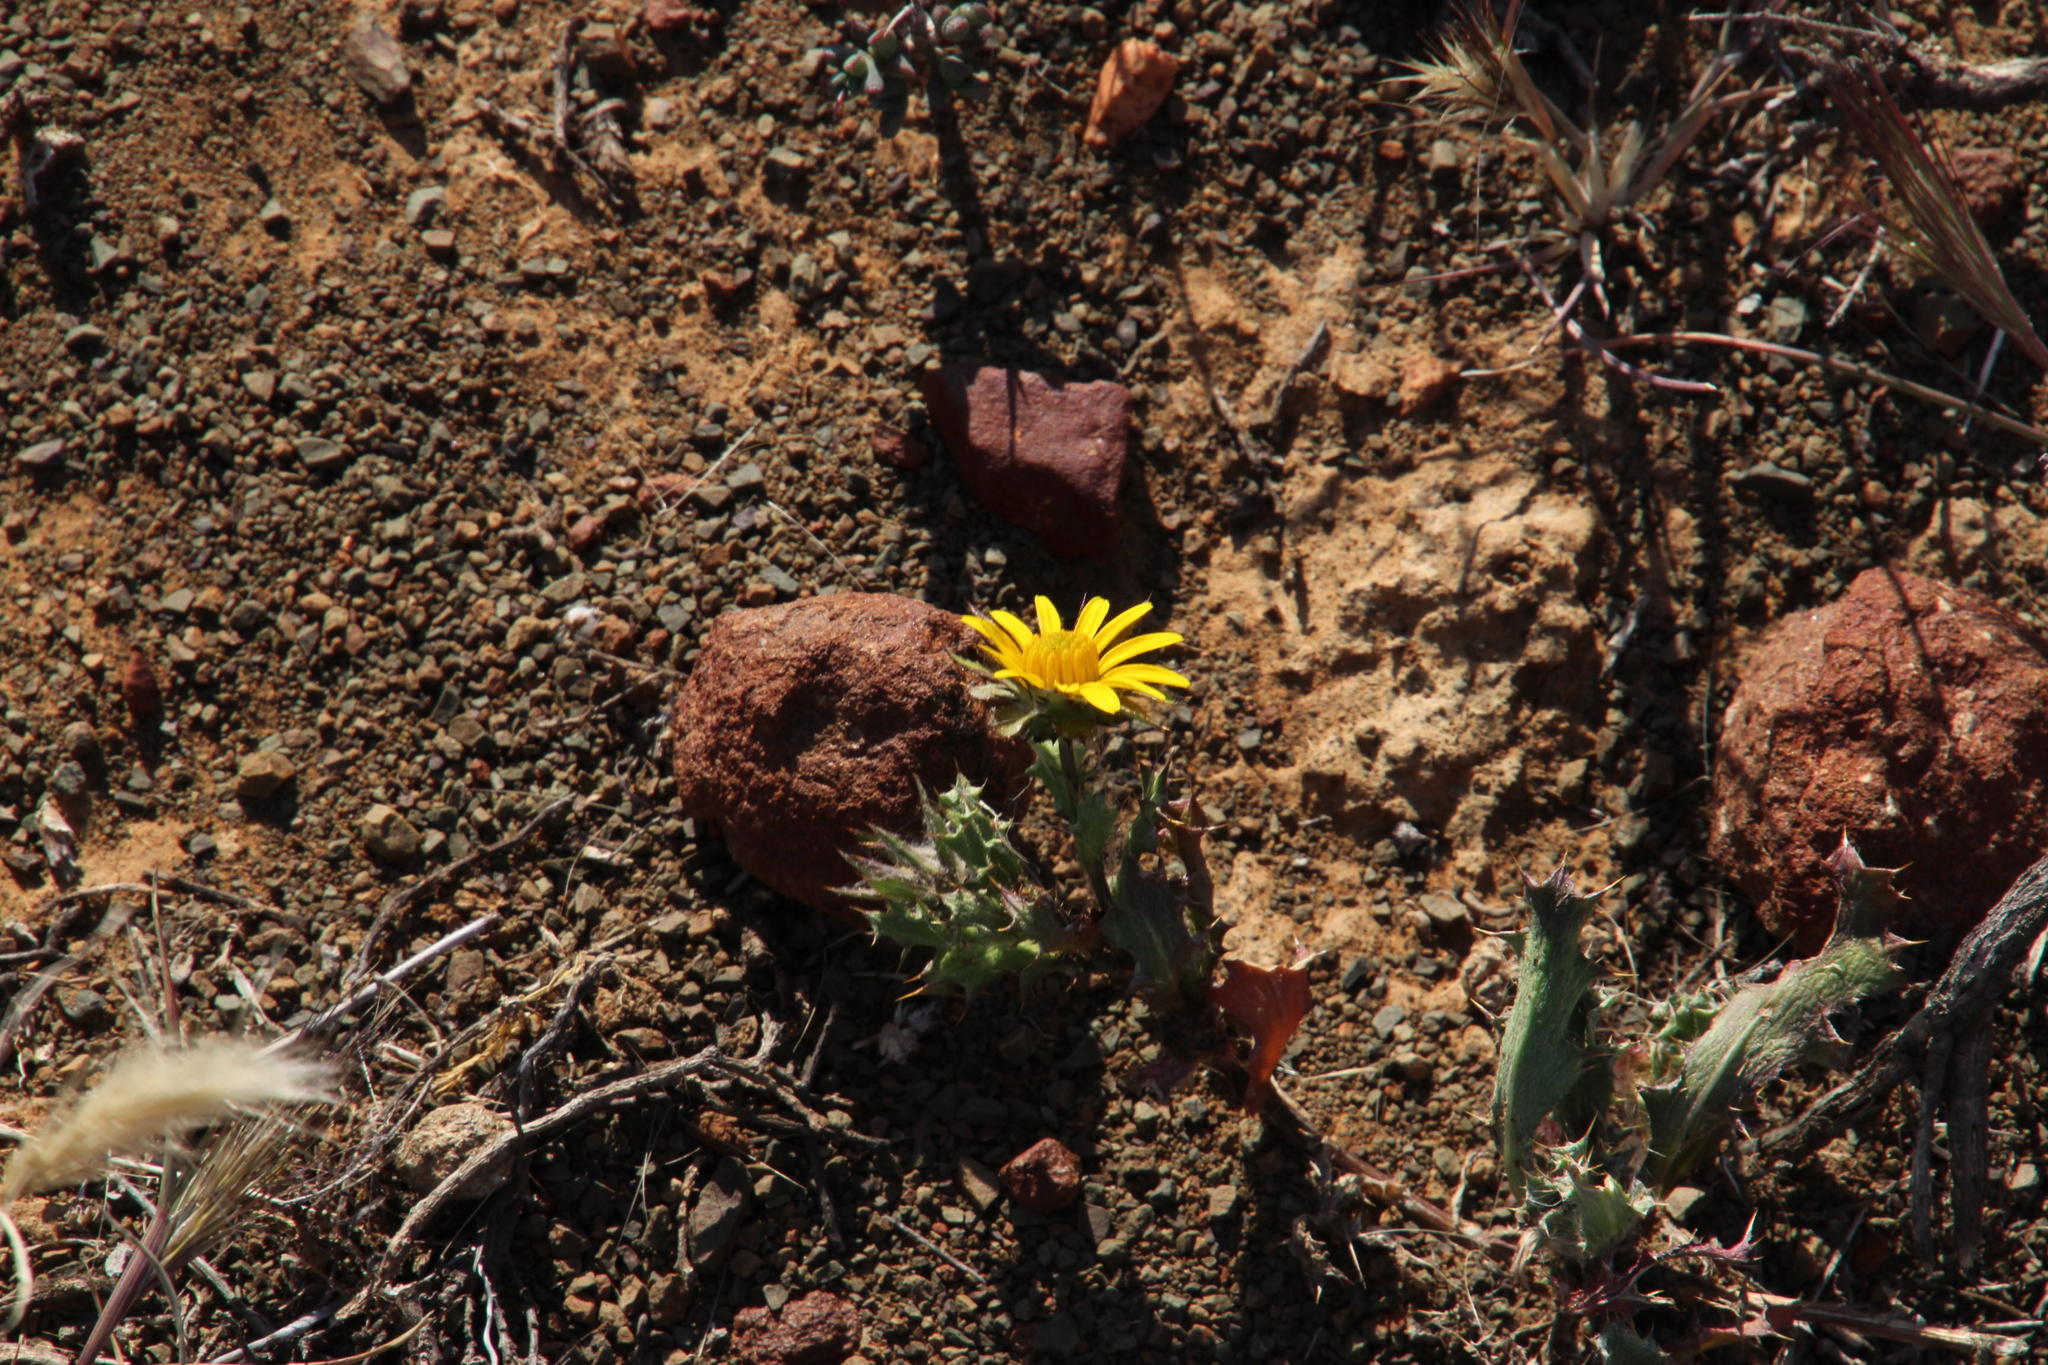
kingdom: Plantae
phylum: Tracheophyta
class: Magnoliopsida
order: Asterales
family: Asteraceae
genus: Cuspidia
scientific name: Cuspidia cernua
